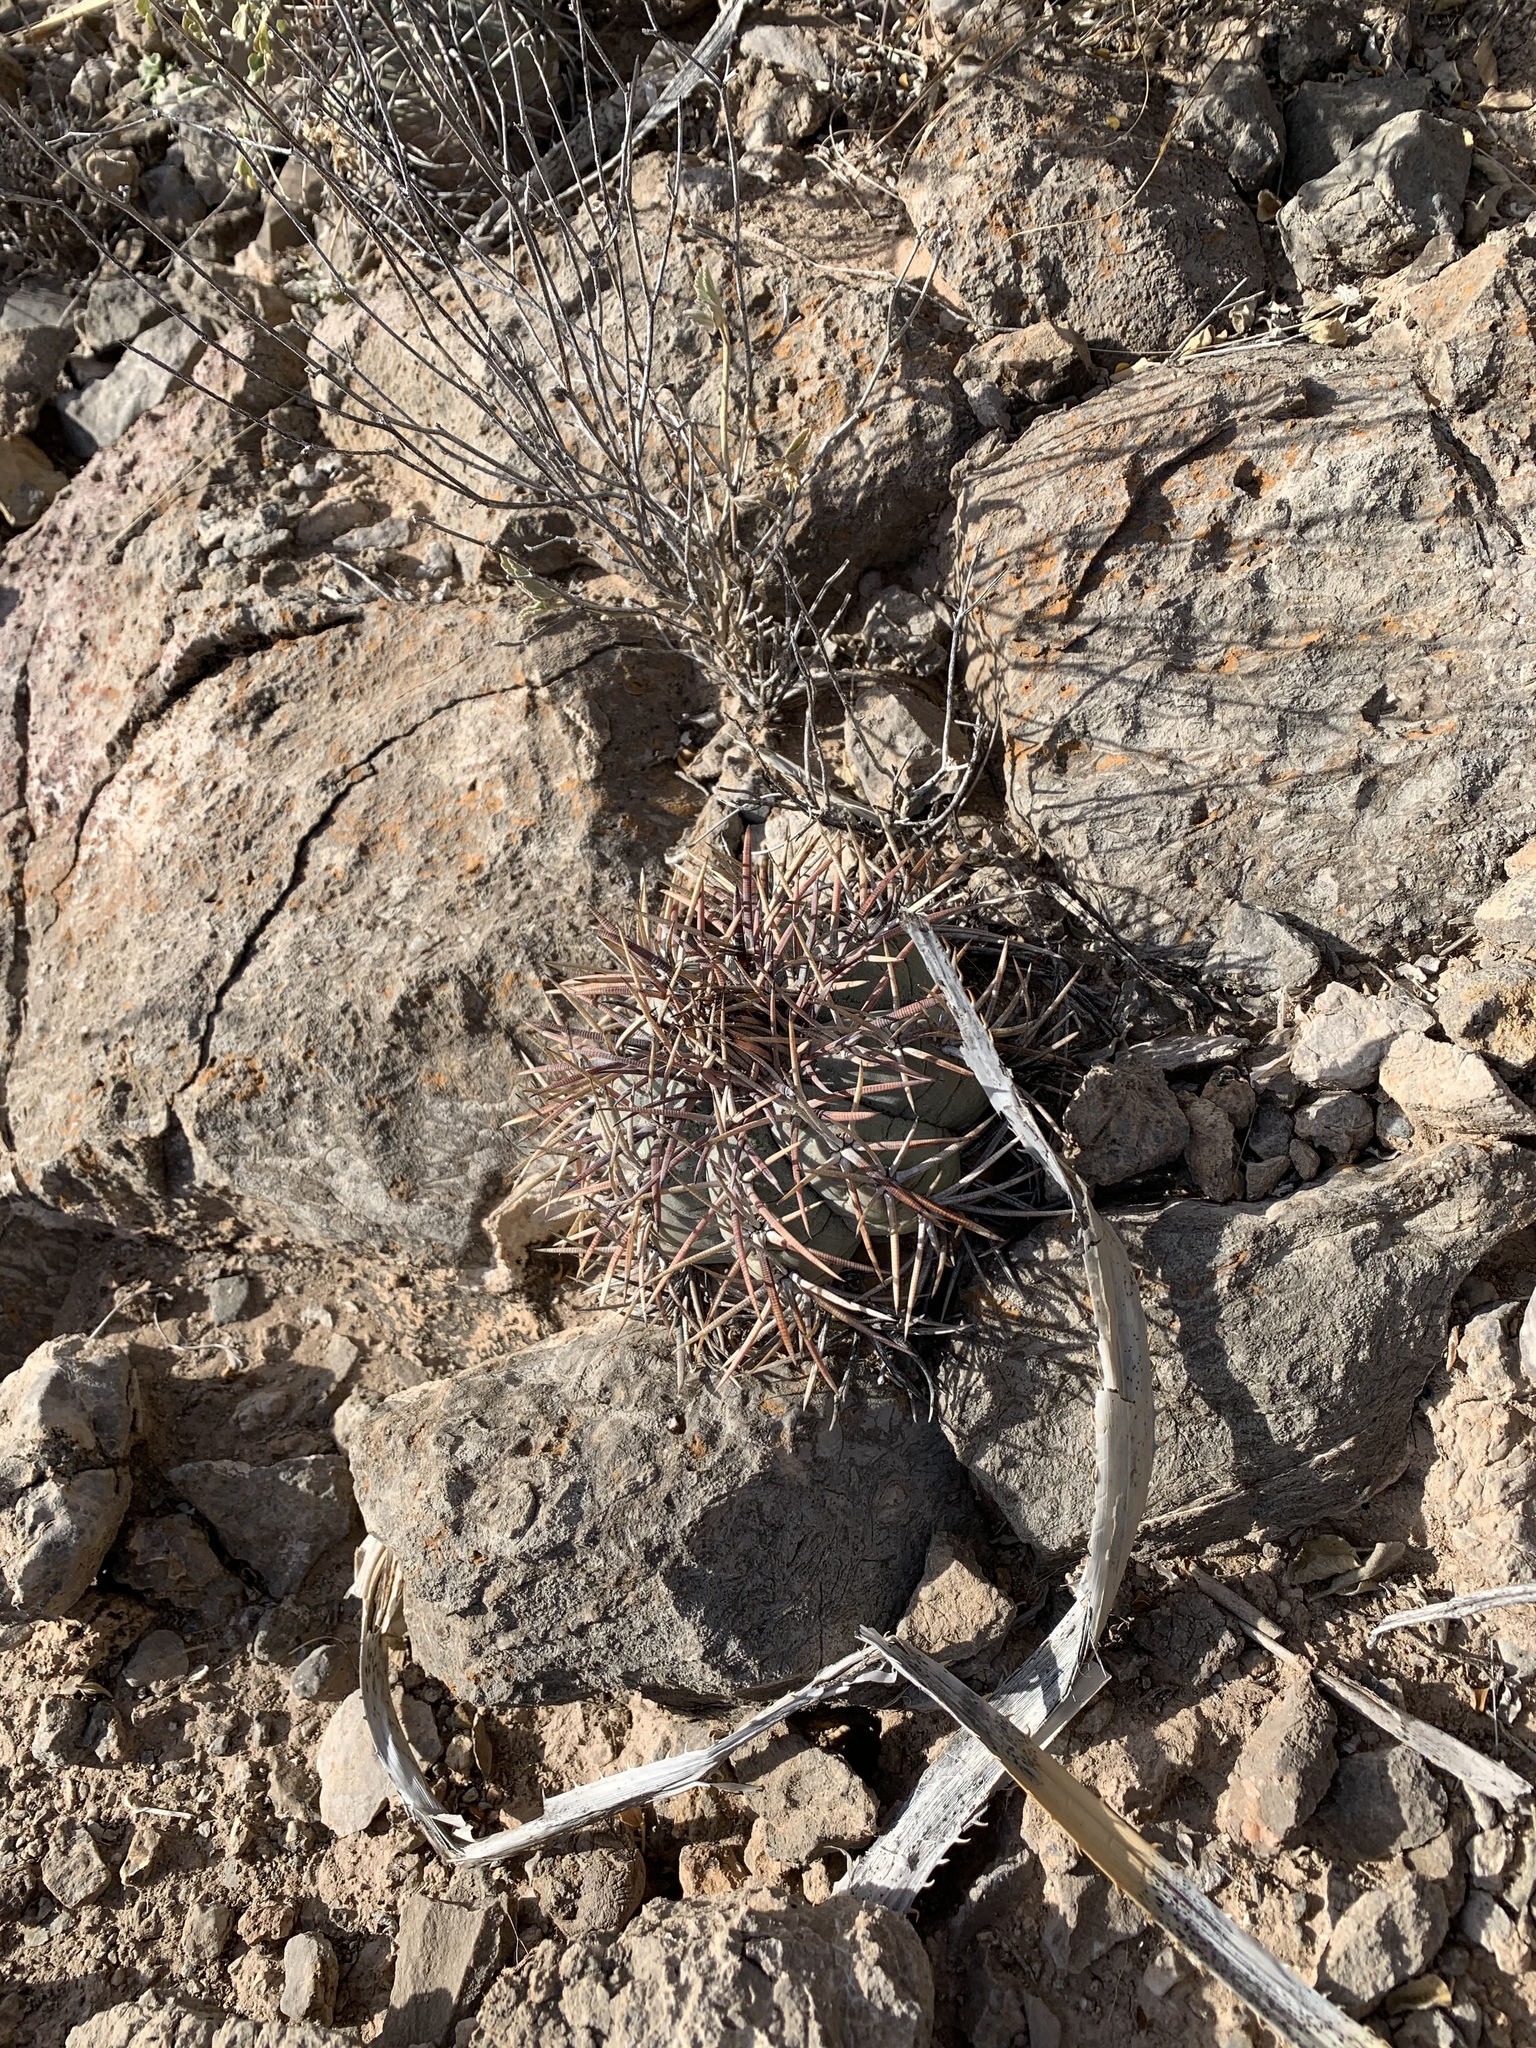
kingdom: Plantae
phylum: Tracheophyta
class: Magnoliopsida
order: Caryophyllales
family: Cactaceae
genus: Echinocactus
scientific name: Echinocactus horizonthalonius
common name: Devilshead
